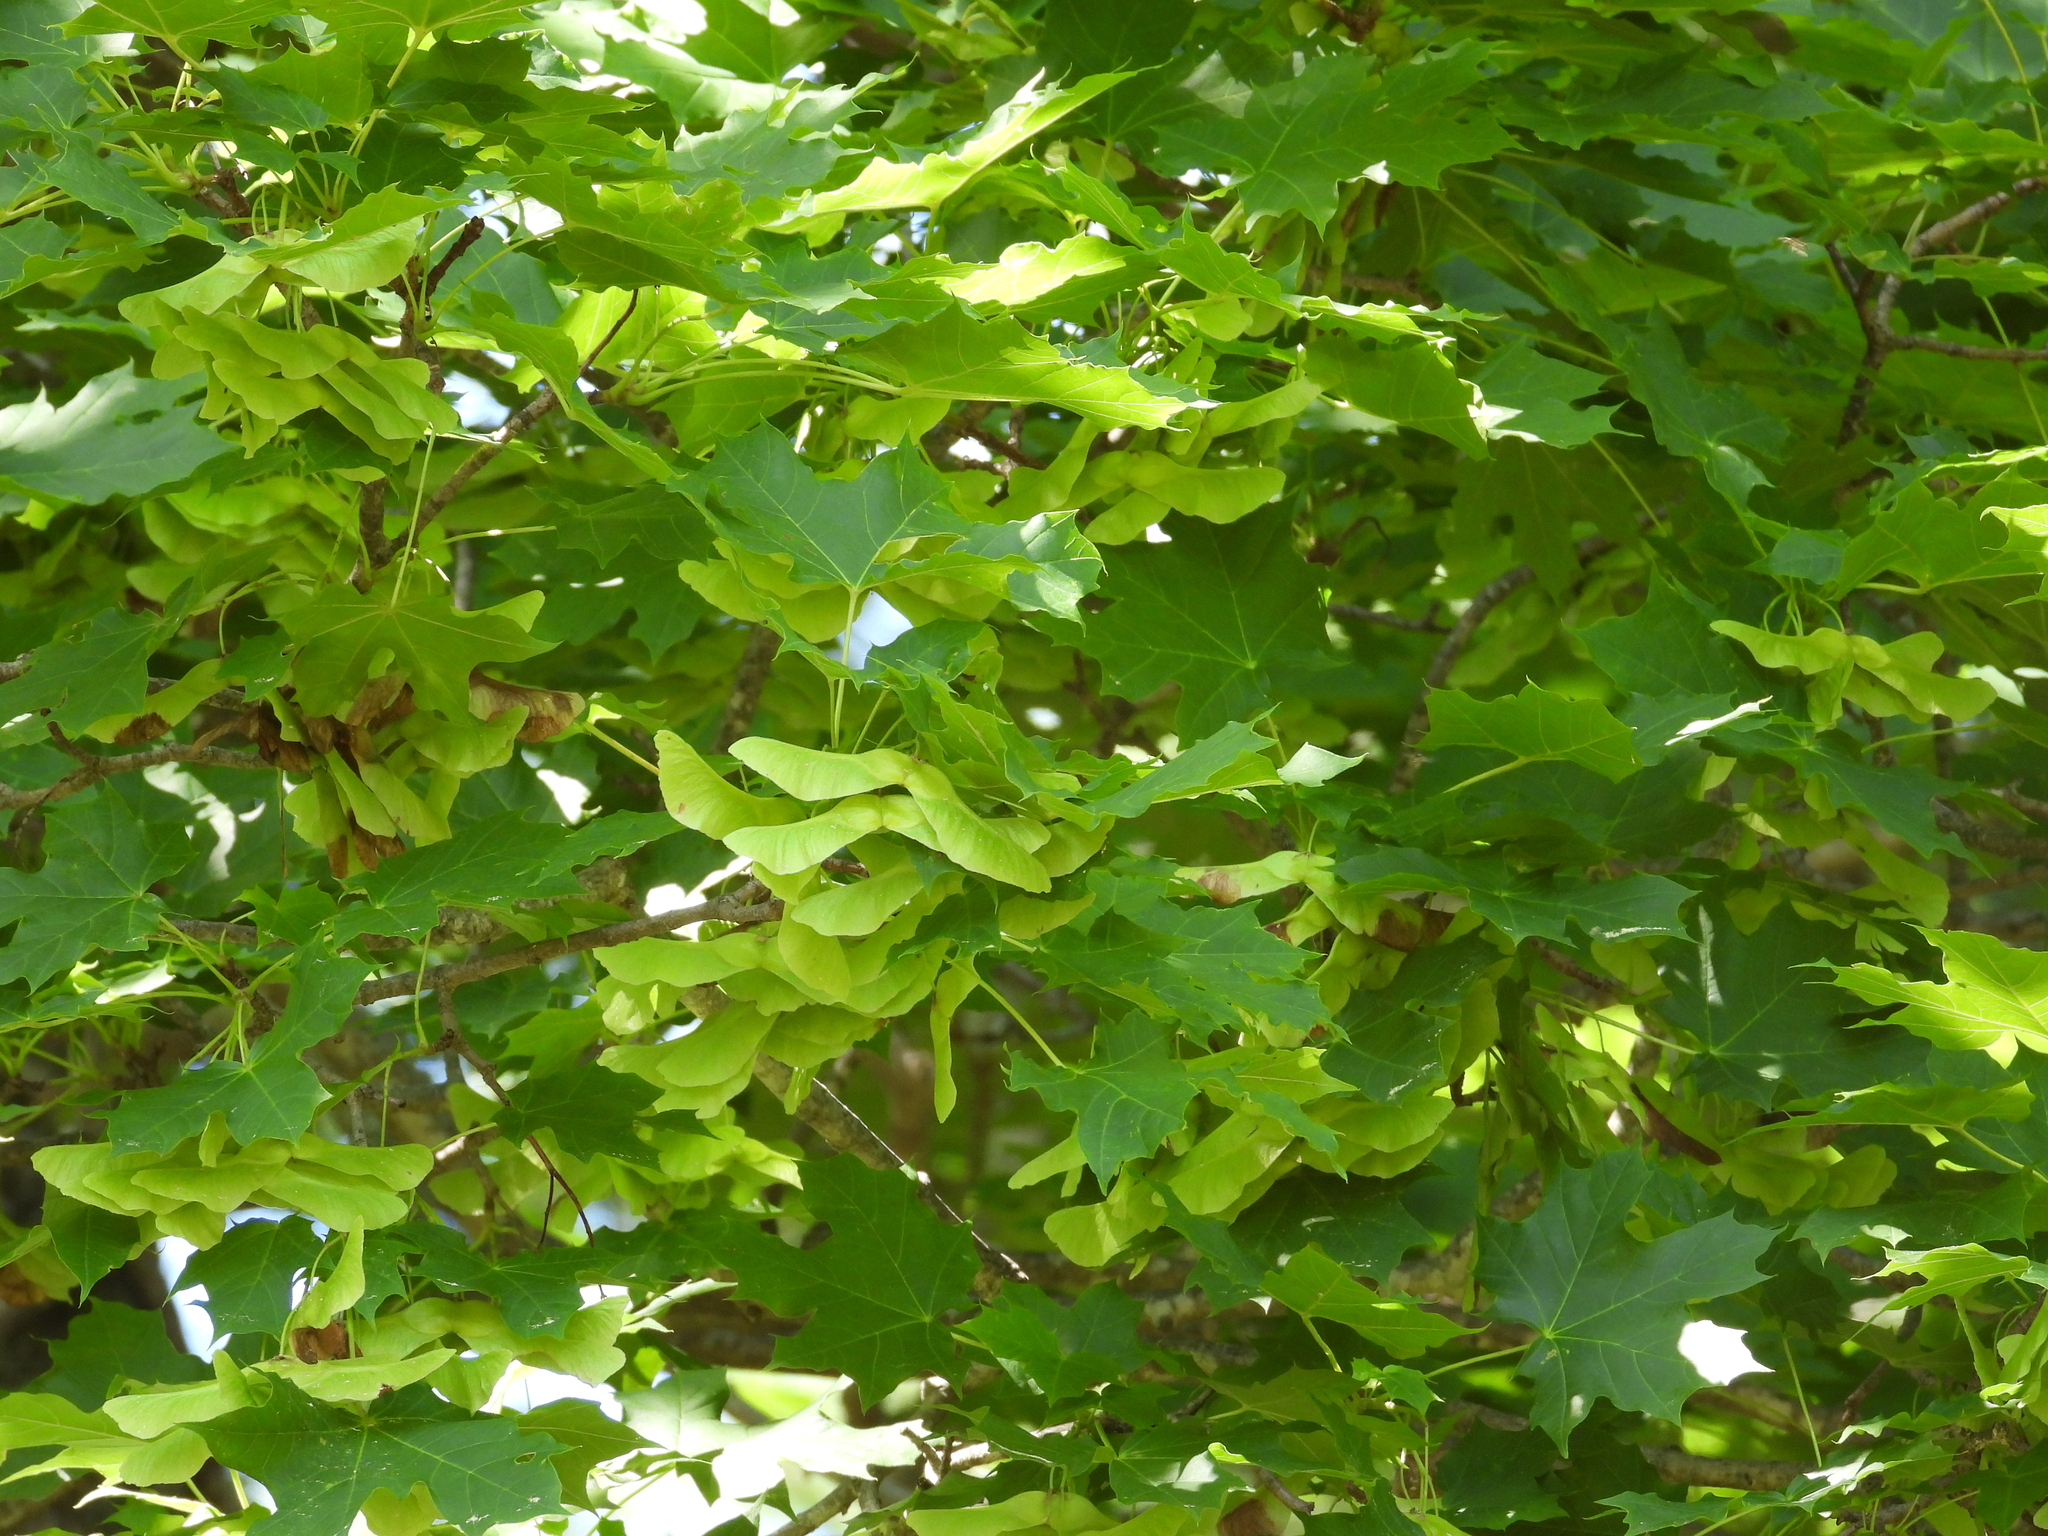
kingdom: Plantae
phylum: Tracheophyta
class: Magnoliopsida
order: Sapindales
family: Sapindaceae
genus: Acer
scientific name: Acer platanoides
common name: Norway maple
